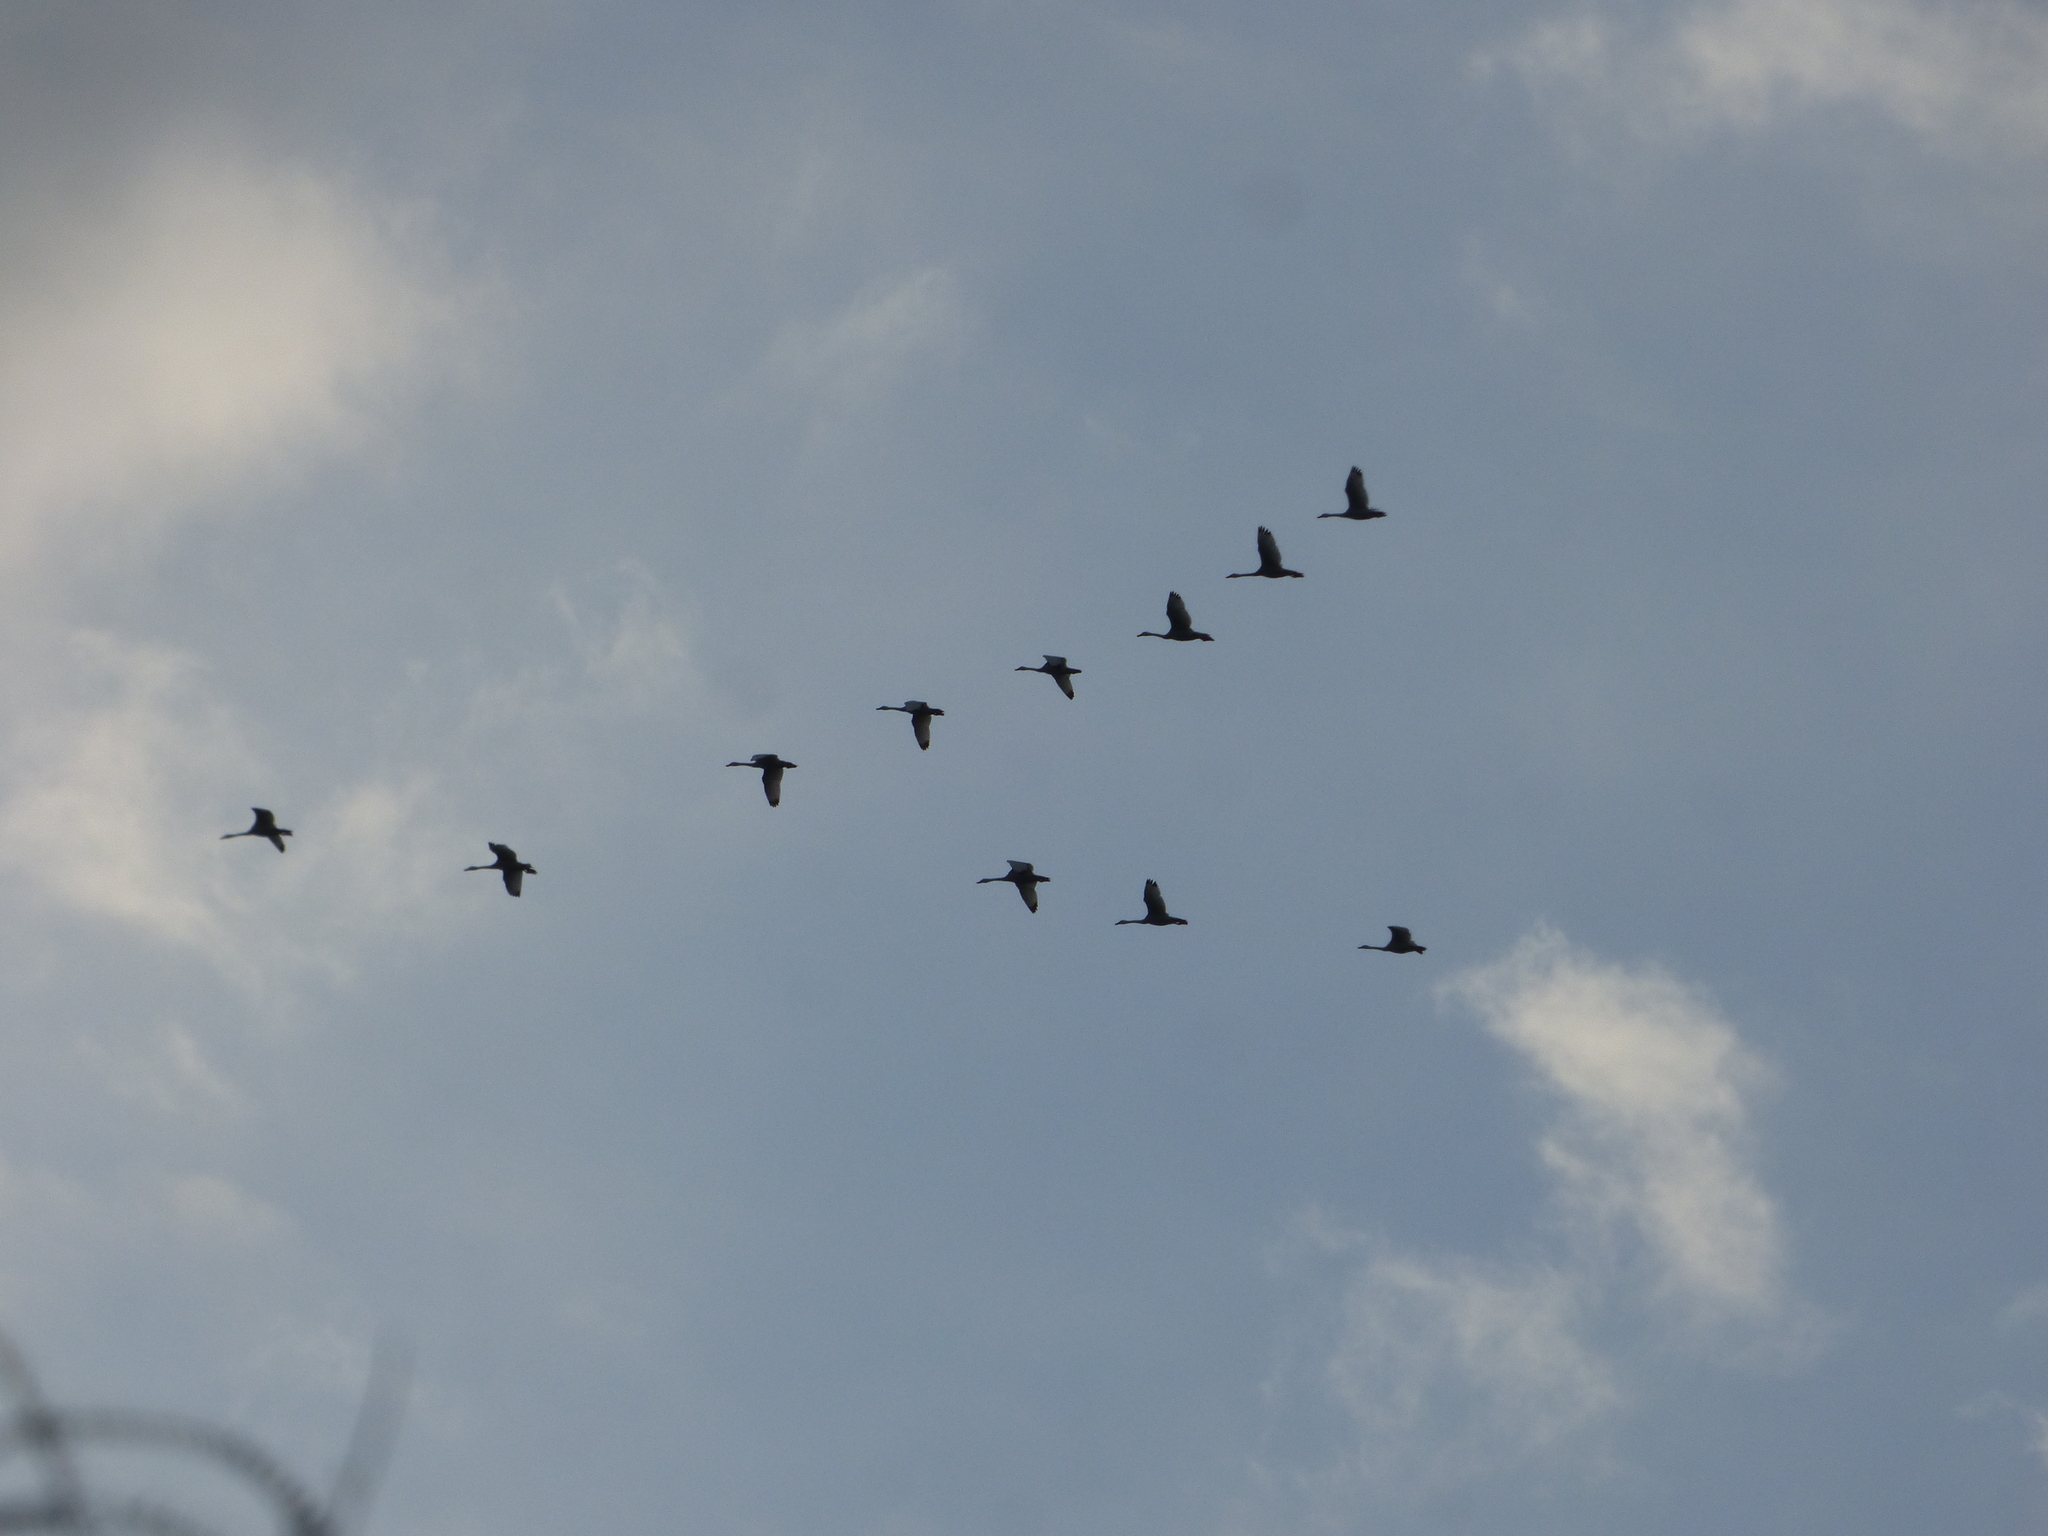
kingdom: Animalia
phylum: Chordata
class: Aves
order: Anseriformes
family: Anatidae
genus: Coscoroba
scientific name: Coscoroba coscoroba
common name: Coscoroba swan
